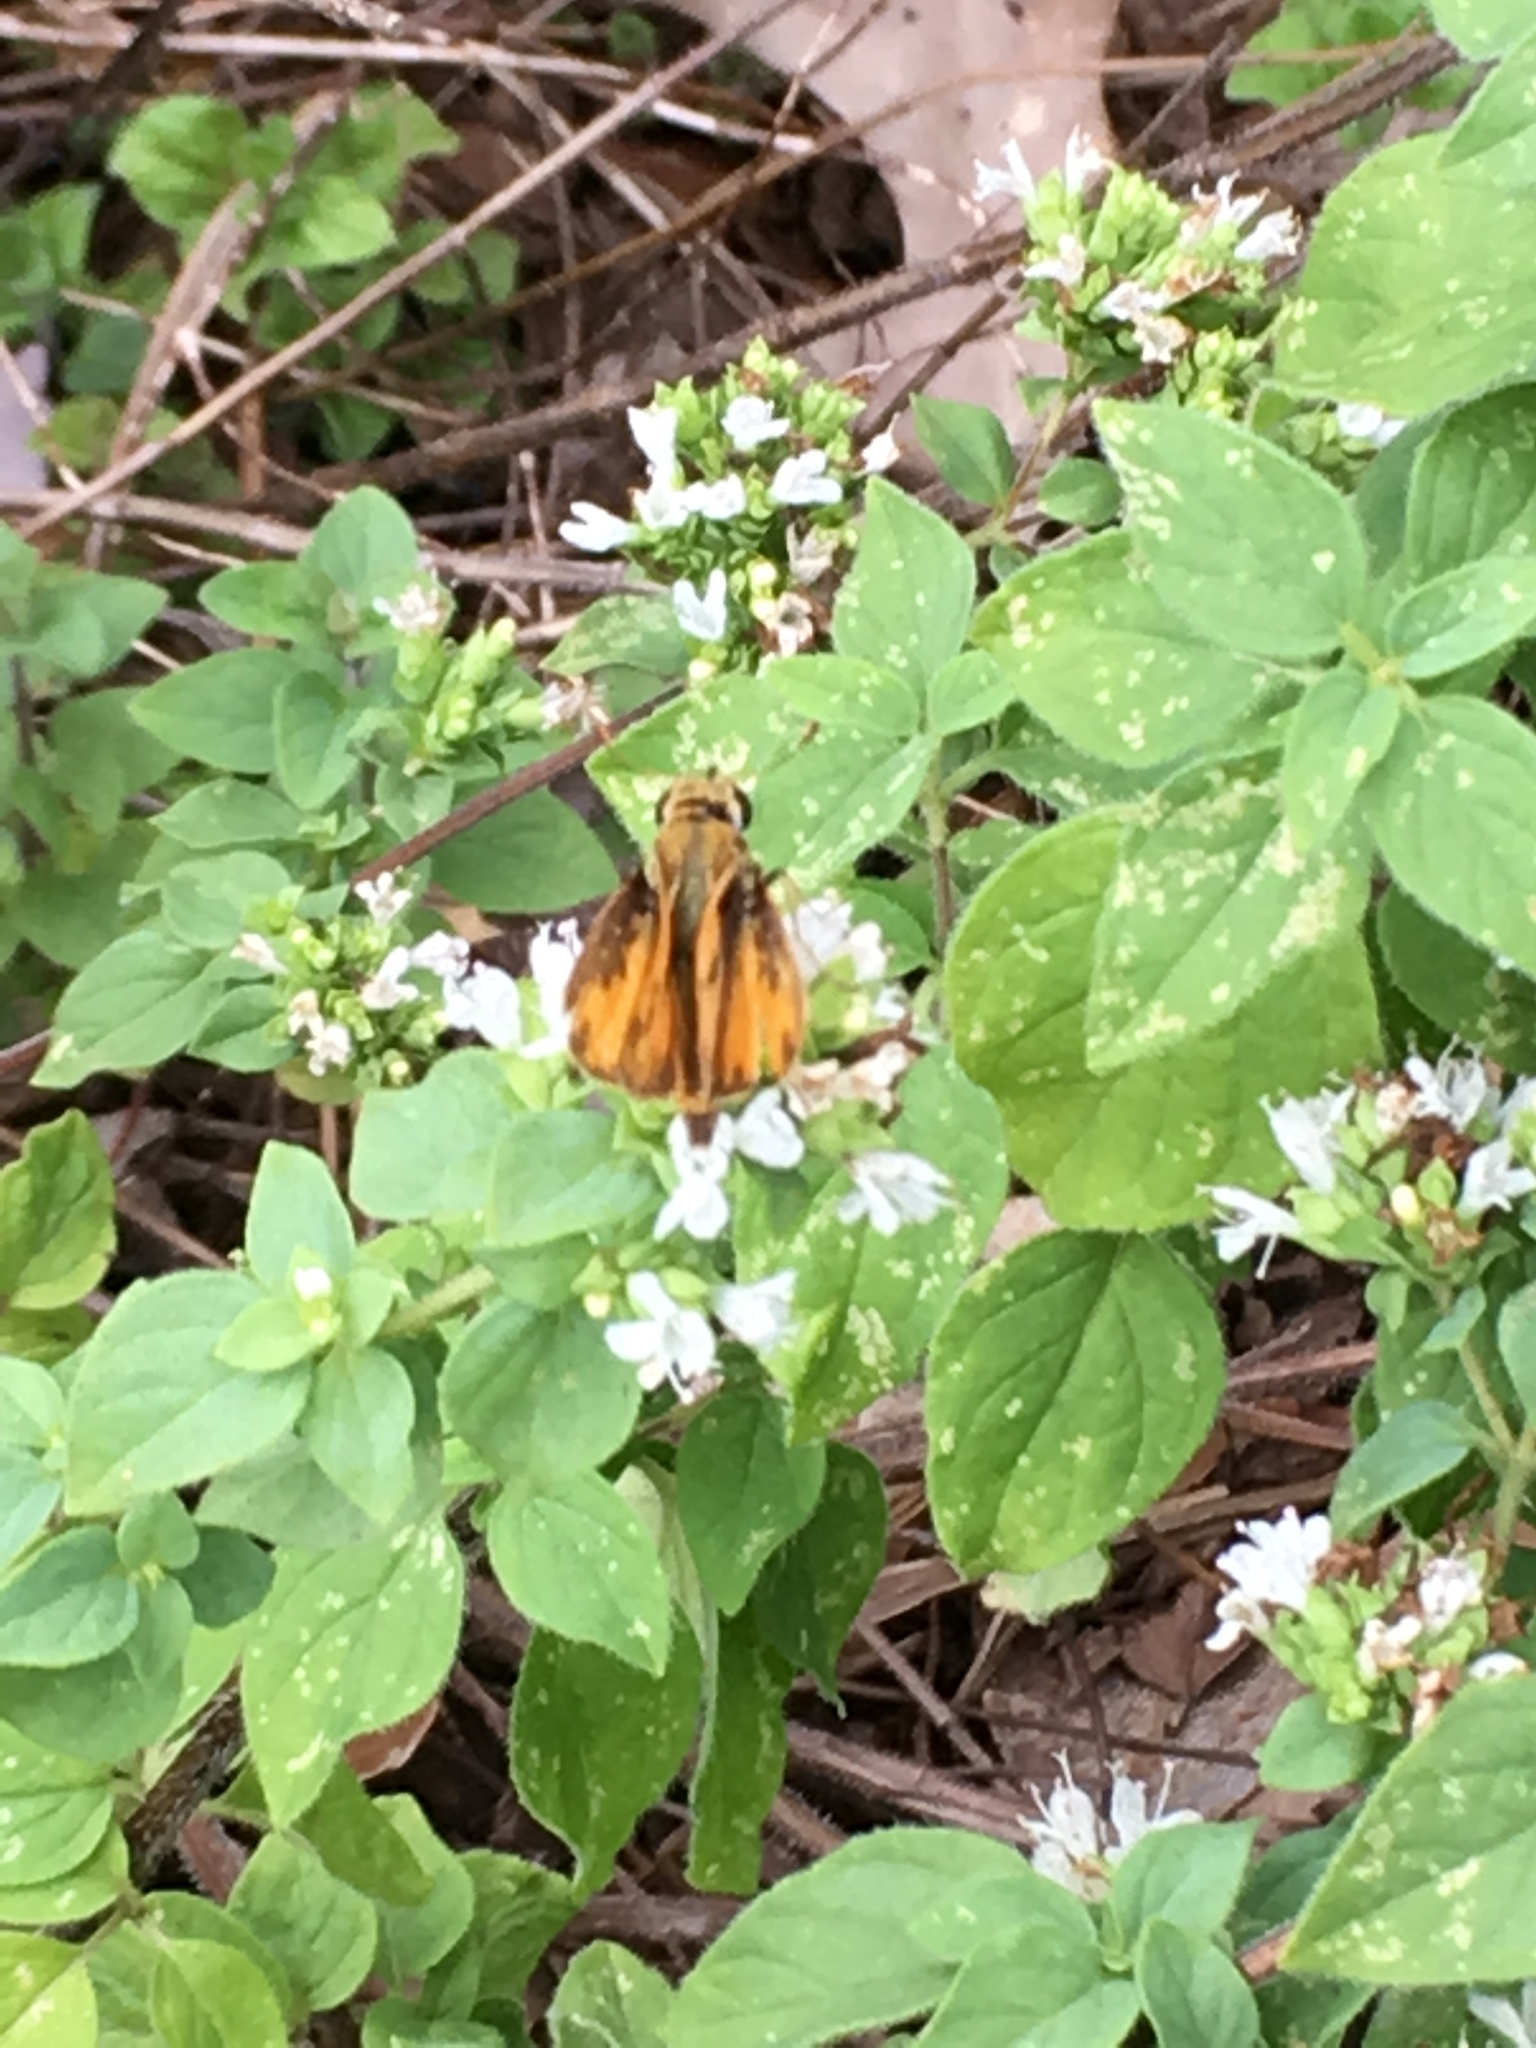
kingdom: Animalia
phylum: Arthropoda
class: Insecta
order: Lepidoptera
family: Hesperiidae
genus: Hylephila
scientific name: Hylephila phyleus
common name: Fiery skipper
